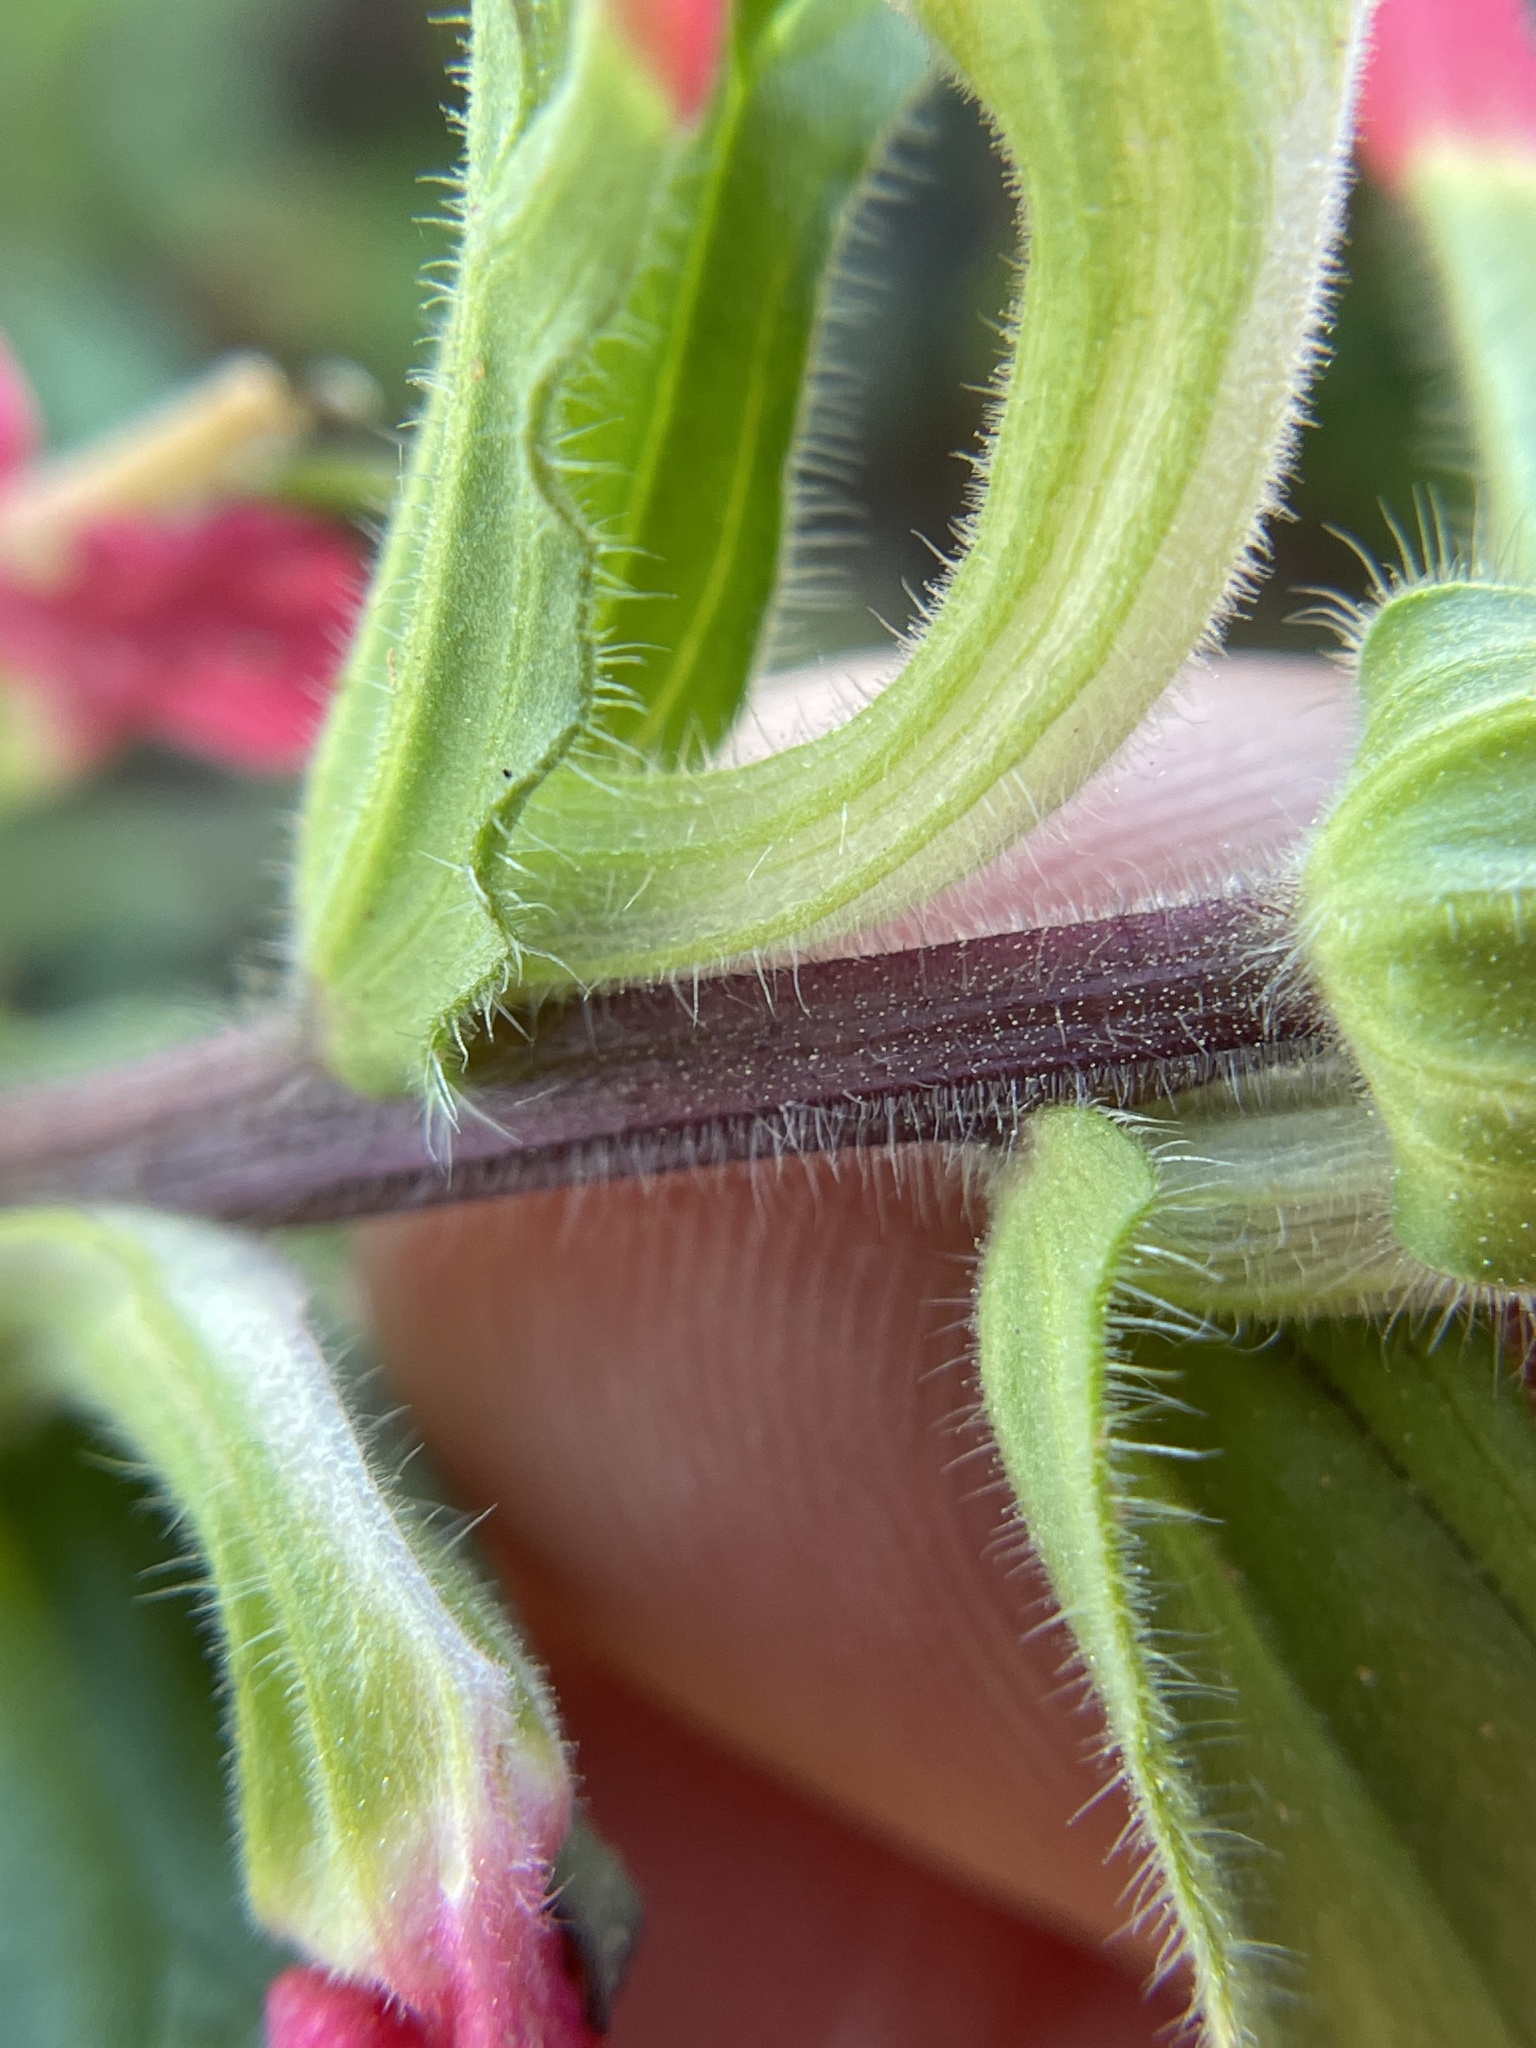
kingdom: Plantae
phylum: Tracheophyta
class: Magnoliopsida
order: Lamiales
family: Orobanchaceae
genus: Castilleja
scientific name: Castilleja indivisa
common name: Texas paintbrush
